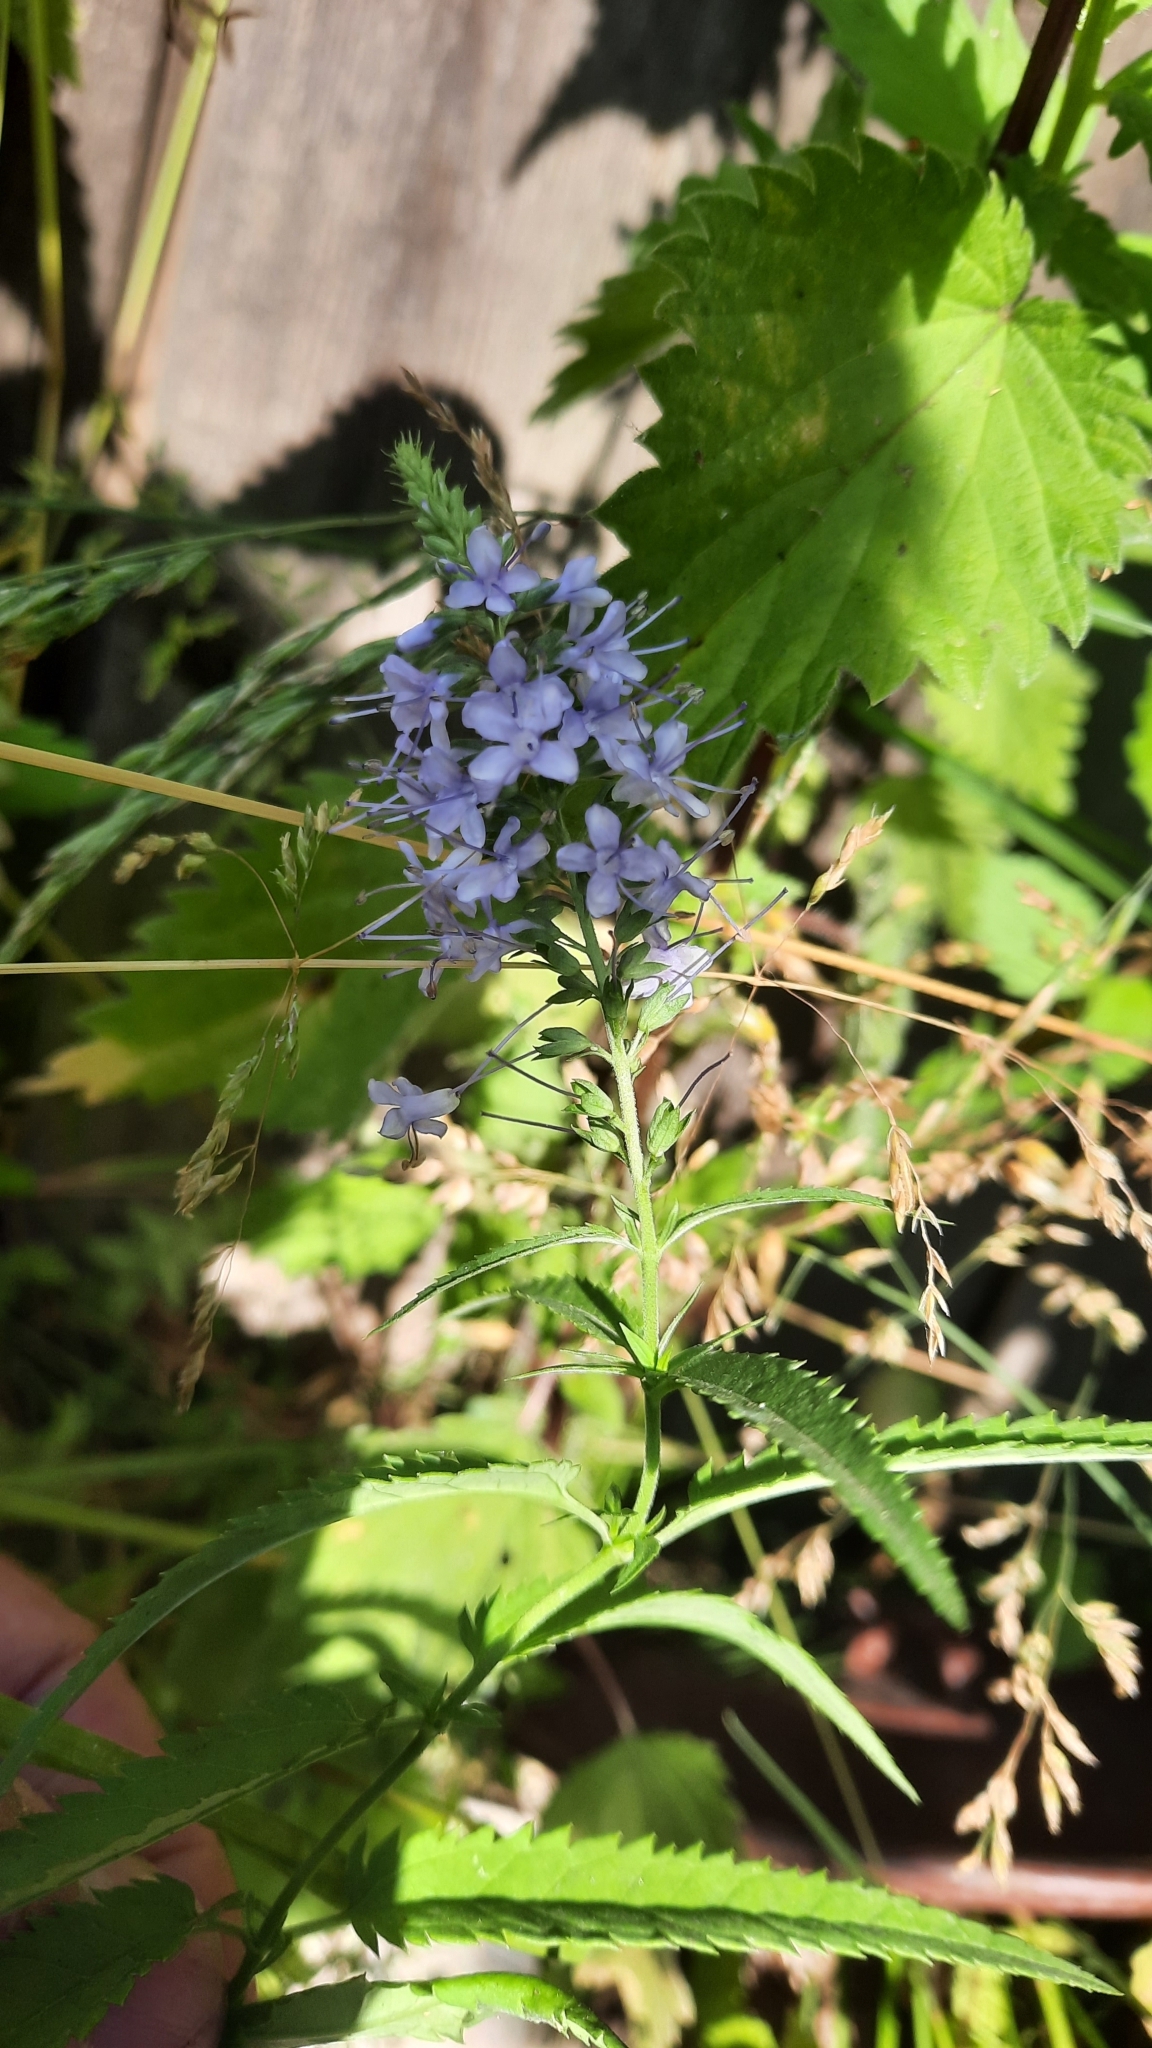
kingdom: Plantae
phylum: Tracheophyta
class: Magnoliopsida
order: Lamiales
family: Plantaginaceae
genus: Veronica
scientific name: Veronica longifolia
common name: Garden speedwell
